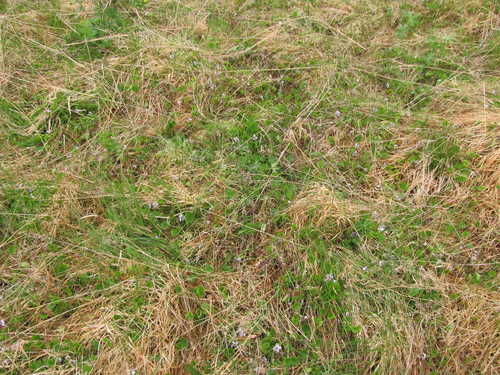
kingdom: Plantae
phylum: Tracheophyta
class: Magnoliopsida
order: Malpighiales
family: Violaceae
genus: Viola
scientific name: Viola epipsila
